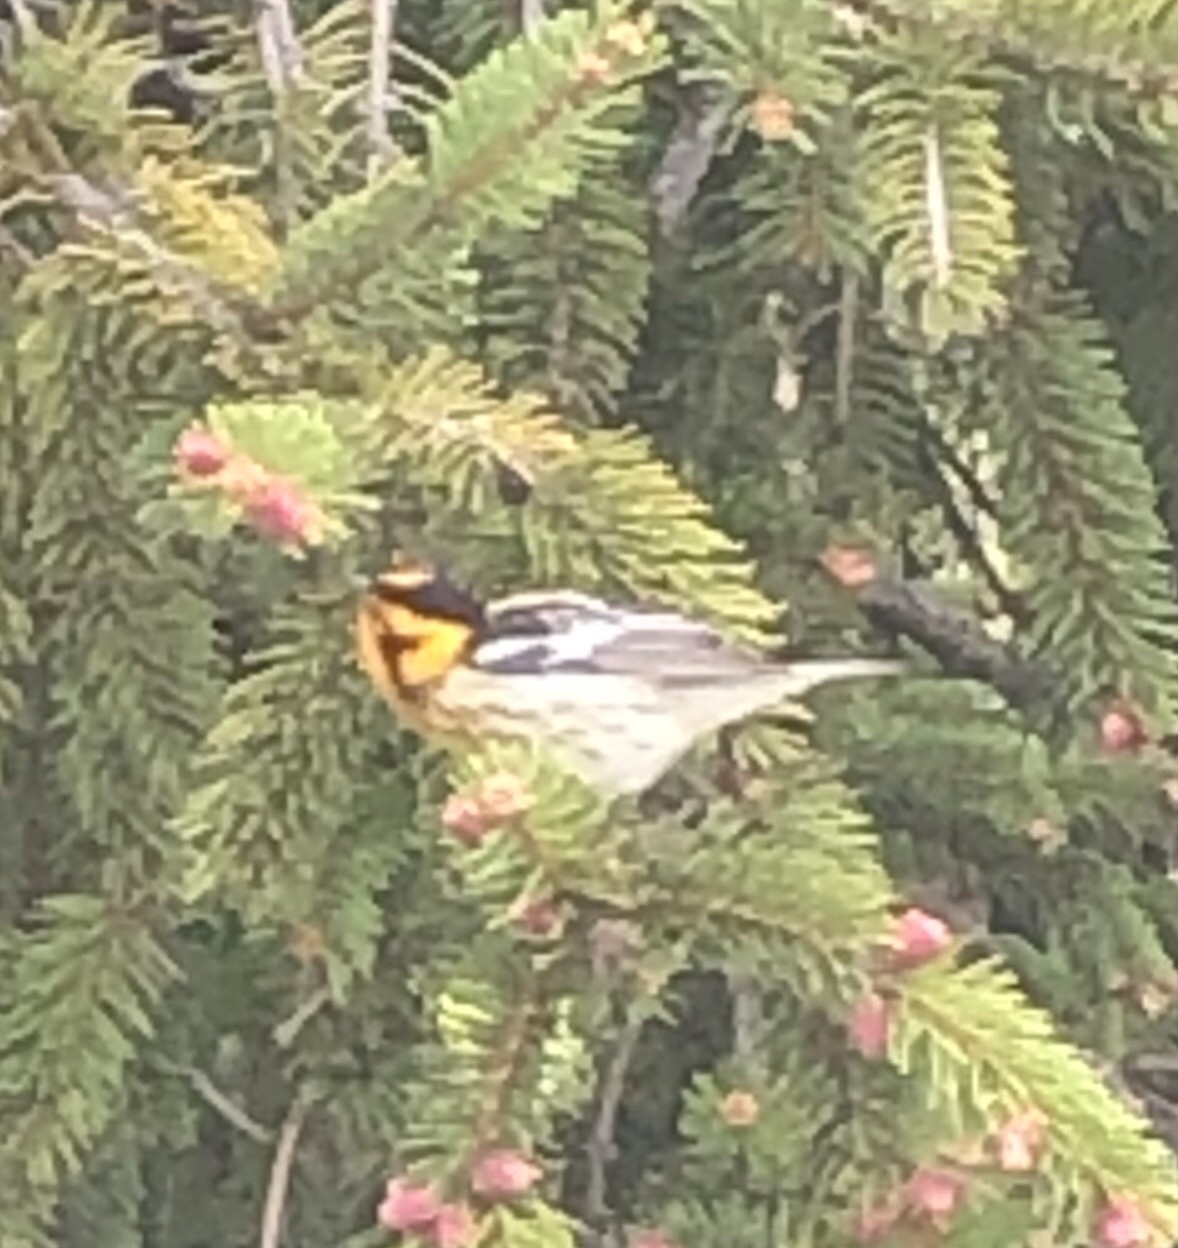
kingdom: Animalia
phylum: Chordata
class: Aves
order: Passeriformes
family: Parulidae
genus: Setophaga
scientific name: Setophaga fusca
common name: Blackburnian warbler
